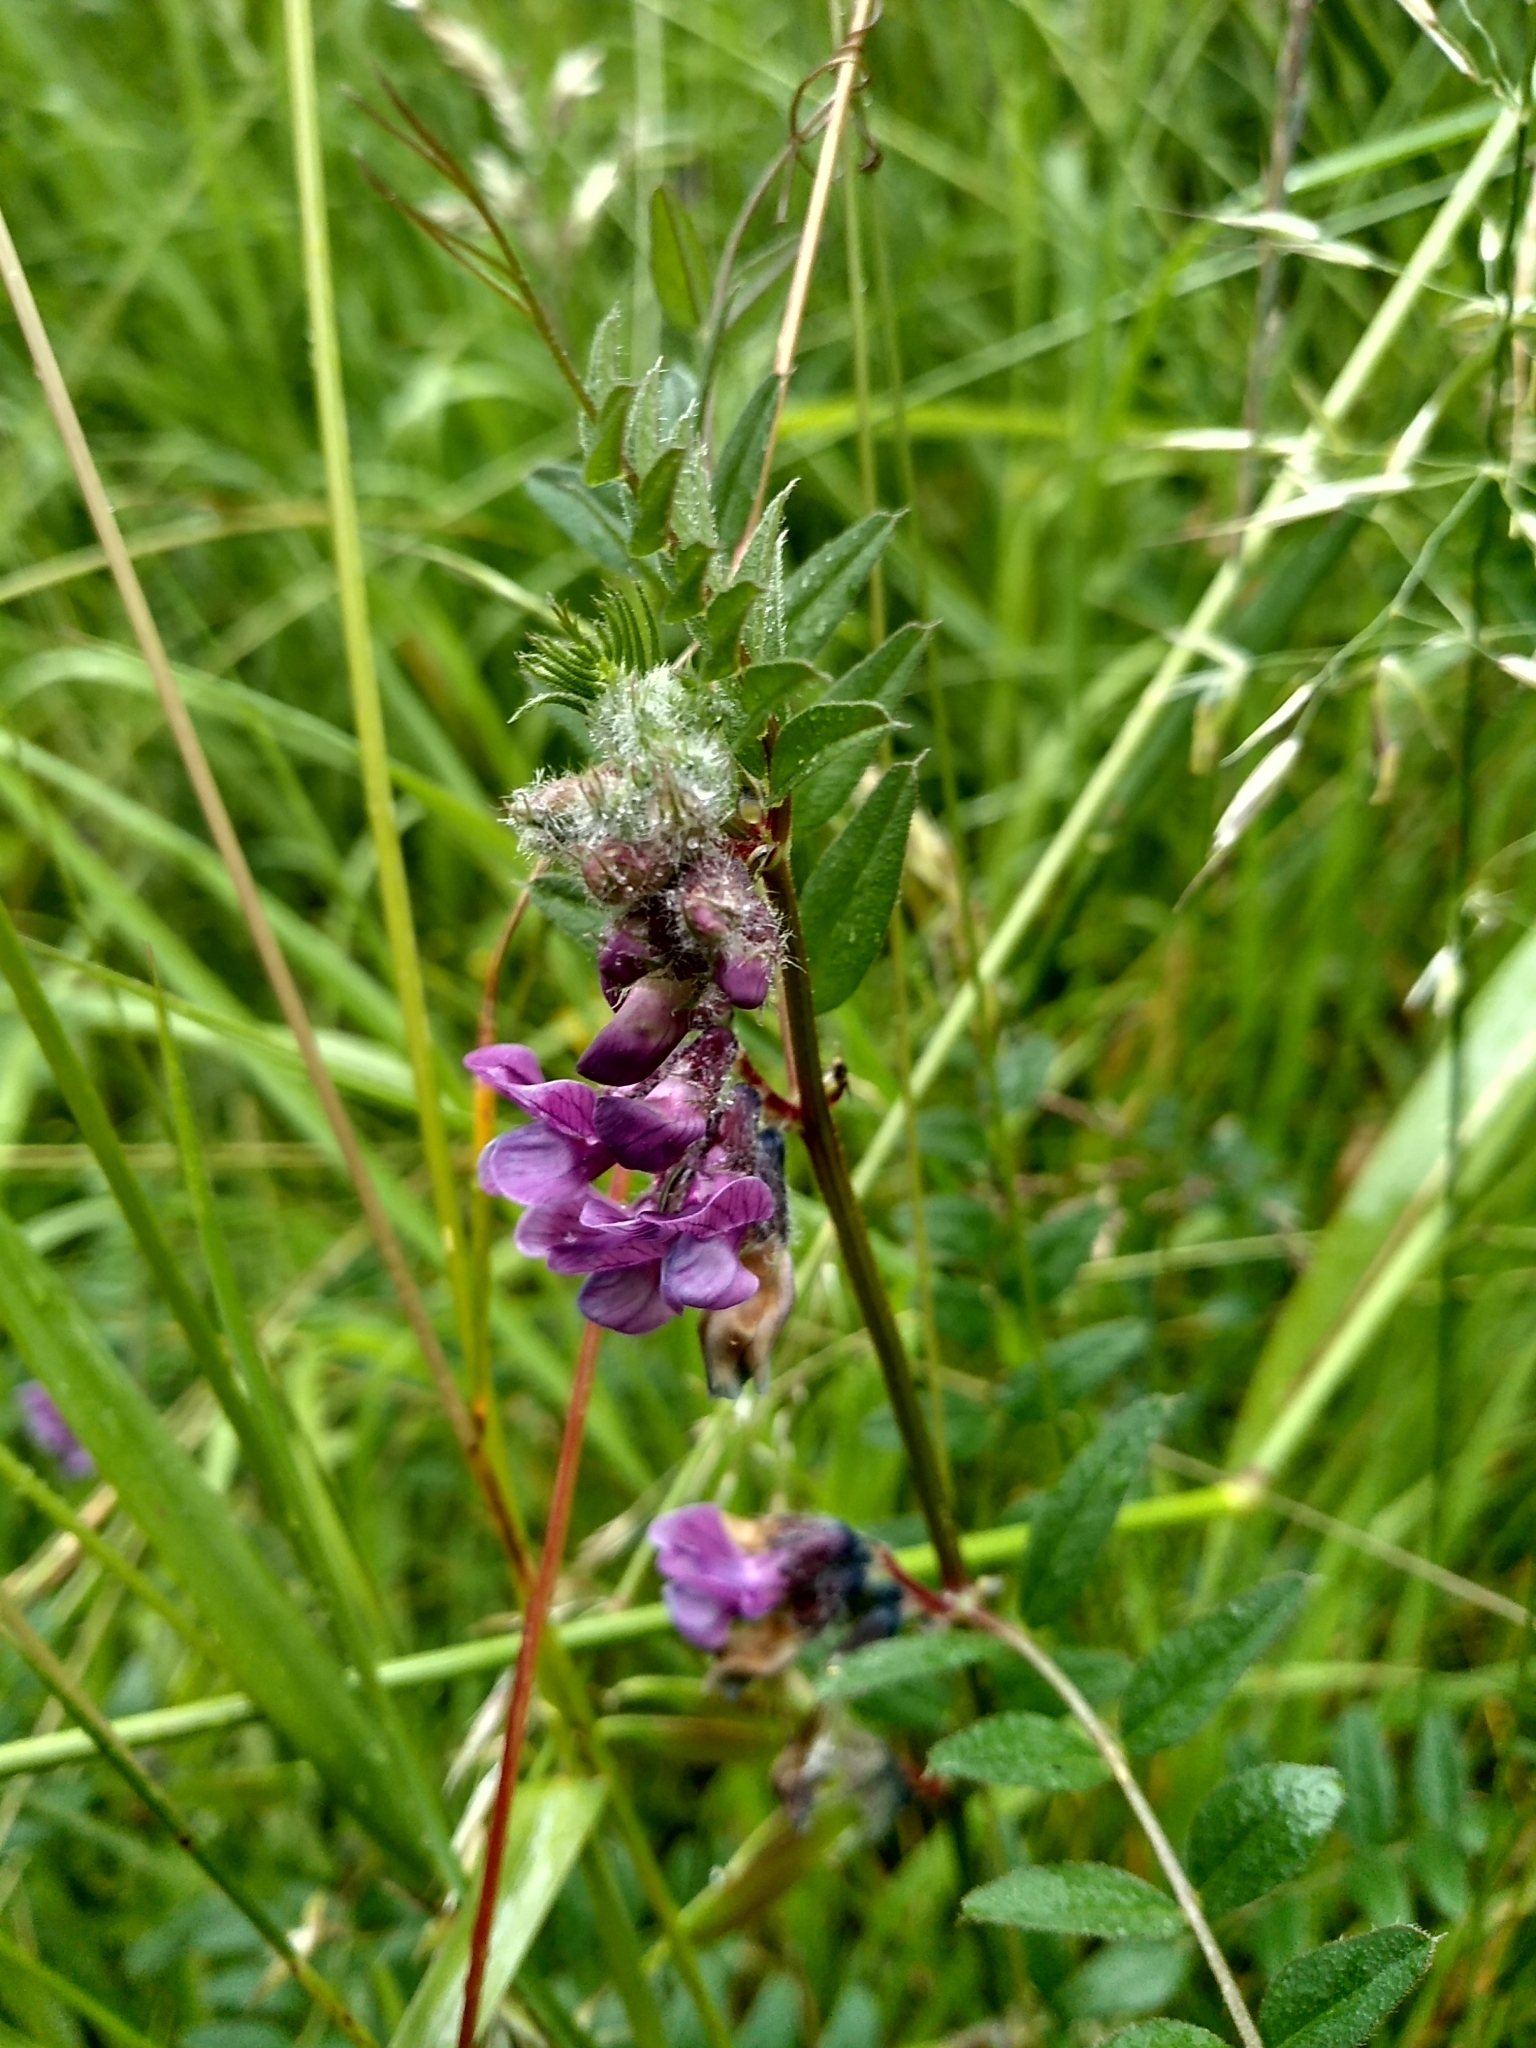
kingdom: Plantae
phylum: Tracheophyta
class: Magnoliopsida
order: Fabales
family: Fabaceae
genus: Vicia
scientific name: Vicia sepium
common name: Bush vetch
